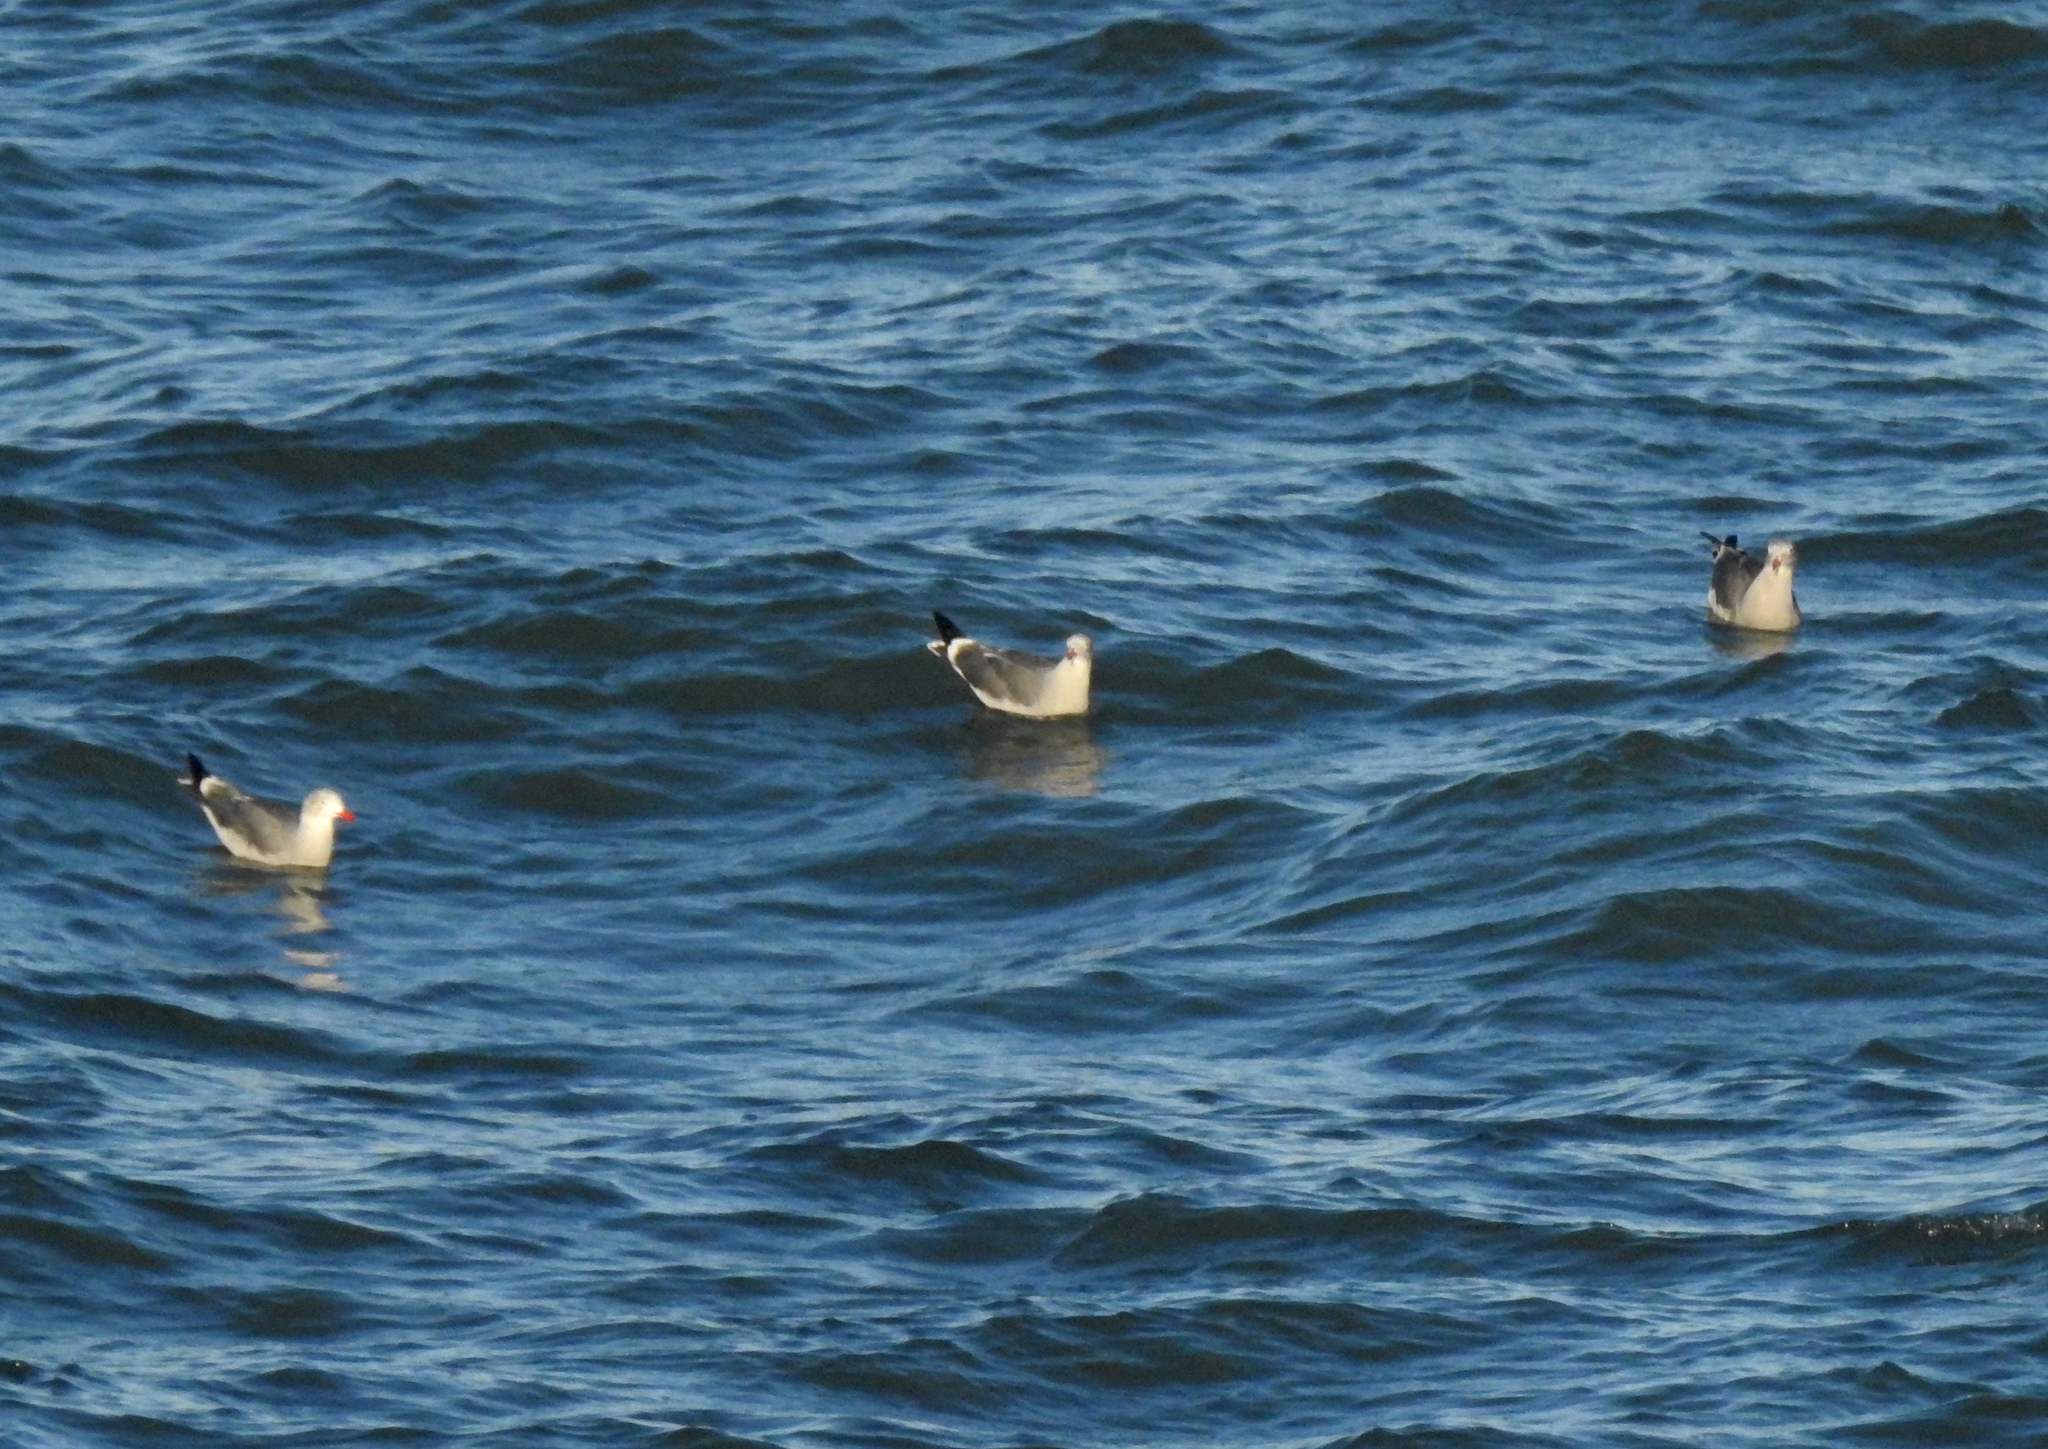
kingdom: Animalia
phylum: Chordata
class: Aves
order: Charadriiformes
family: Laridae
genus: Larus
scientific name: Larus heermanni
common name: Heermann's gull
